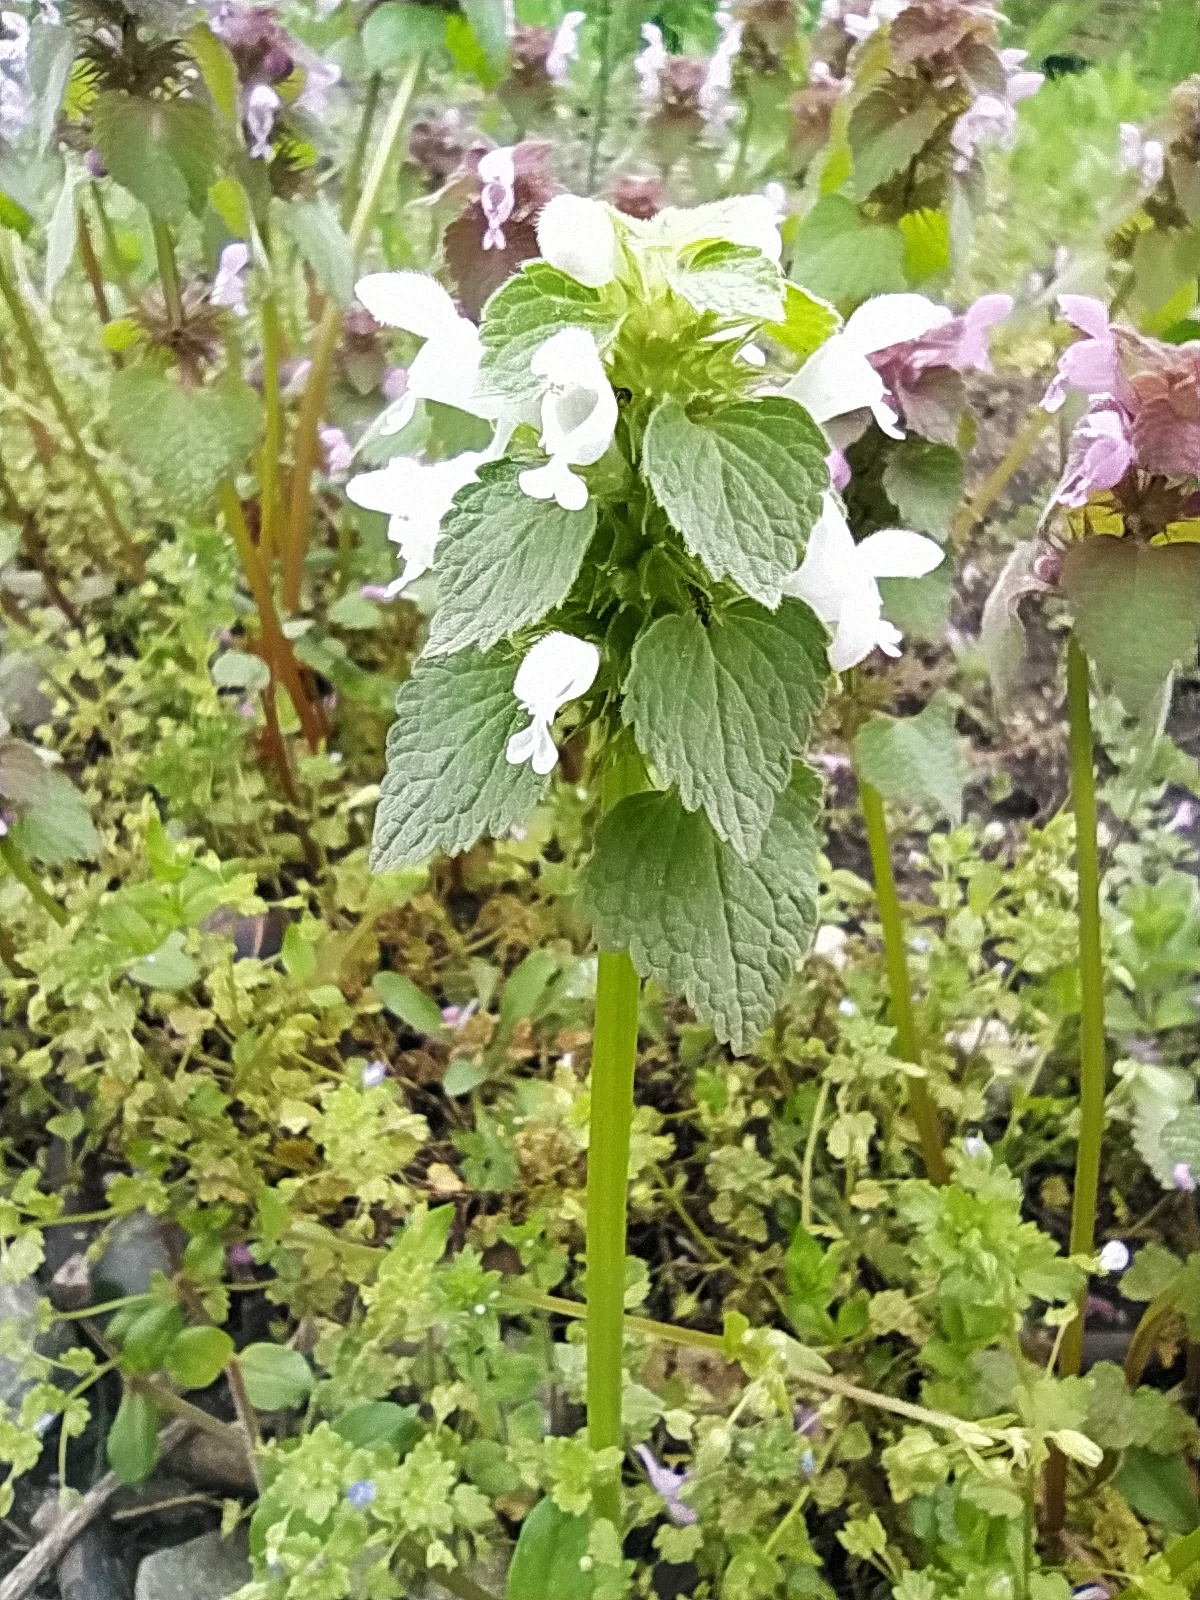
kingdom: Plantae
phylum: Tracheophyta
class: Magnoliopsida
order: Lamiales
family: Lamiaceae
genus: Lamium
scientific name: Lamium purpureum
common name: Red dead-nettle
